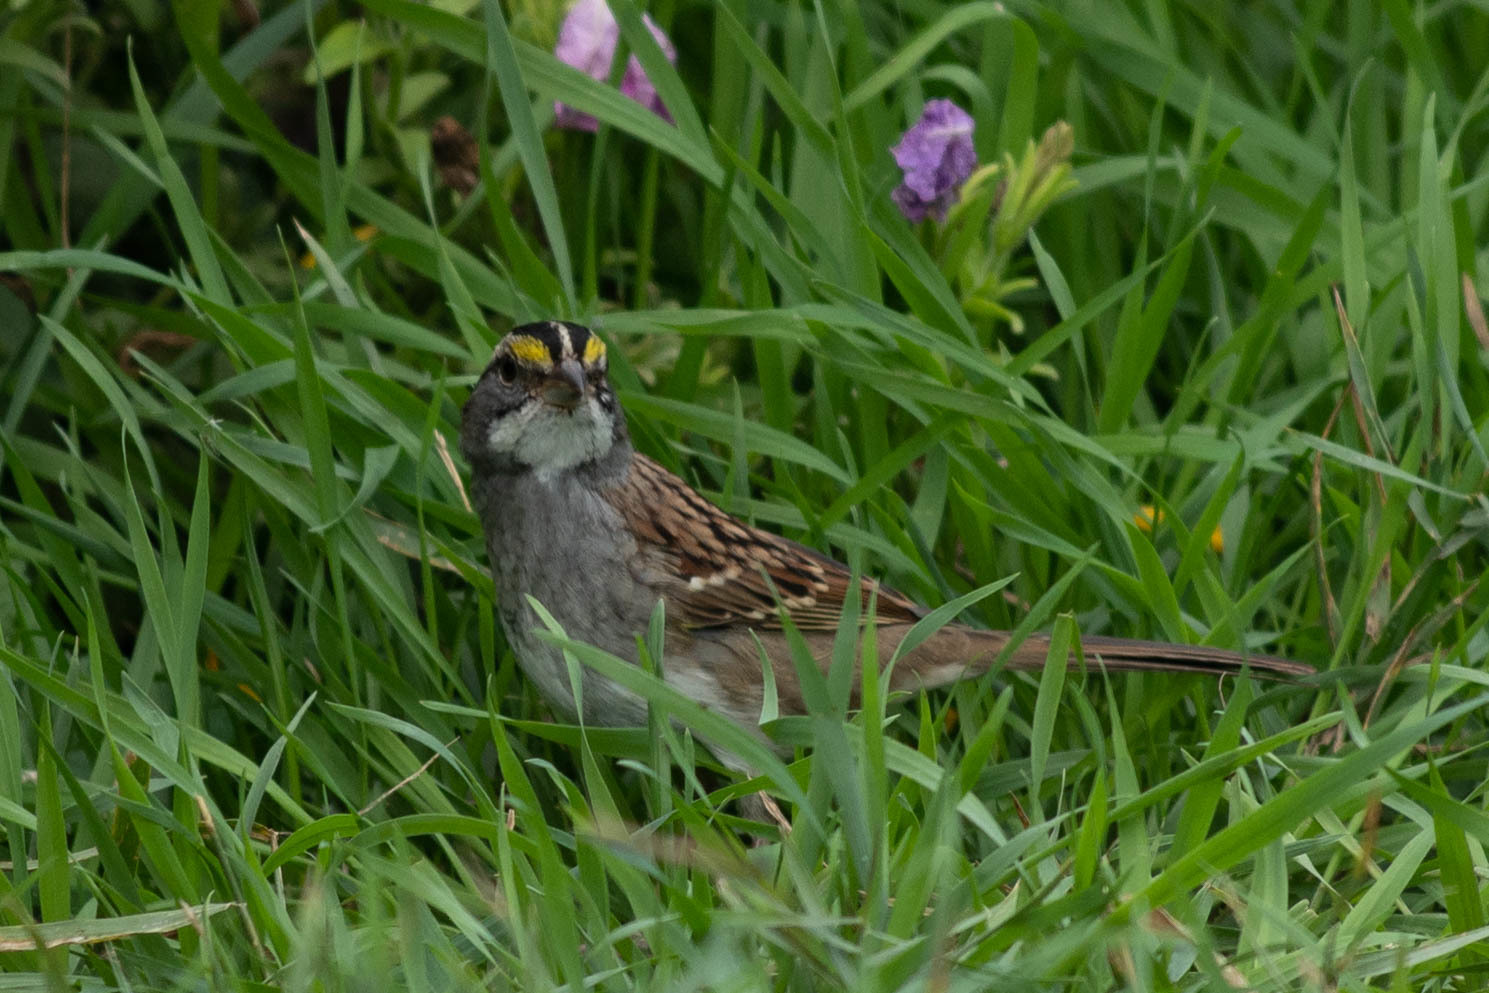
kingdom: Animalia
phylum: Chordata
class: Aves
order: Passeriformes
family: Passerellidae
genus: Zonotrichia
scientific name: Zonotrichia albicollis
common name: White-throated sparrow
